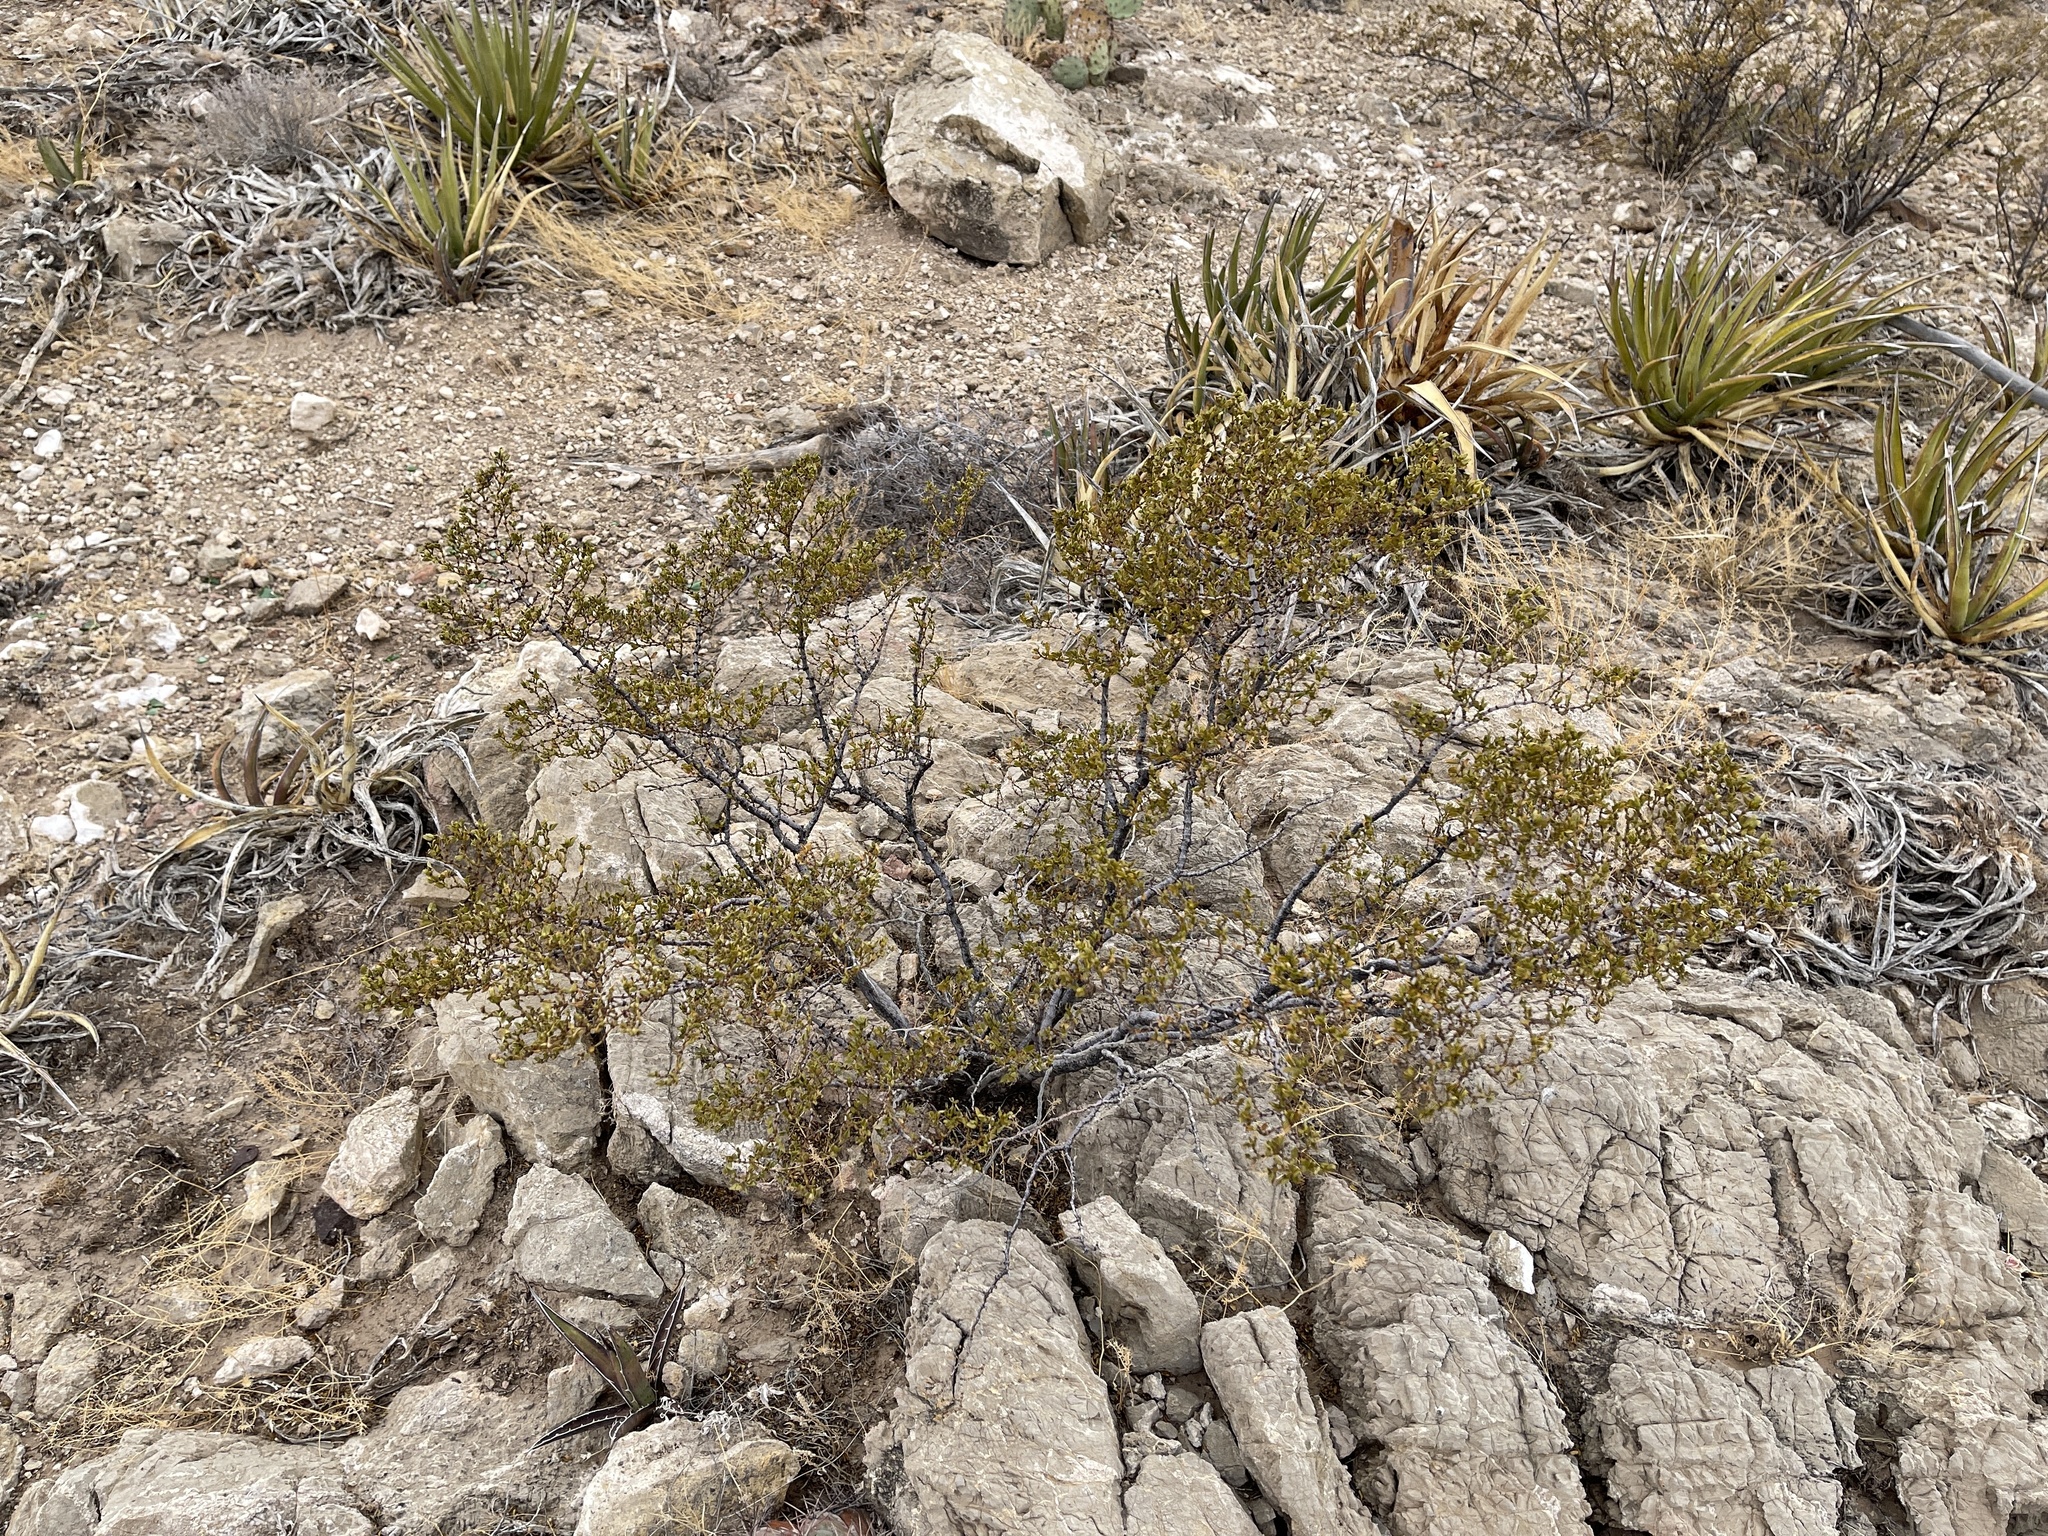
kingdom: Plantae
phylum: Tracheophyta
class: Magnoliopsida
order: Zygophyllales
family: Zygophyllaceae
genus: Larrea
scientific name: Larrea tridentata
